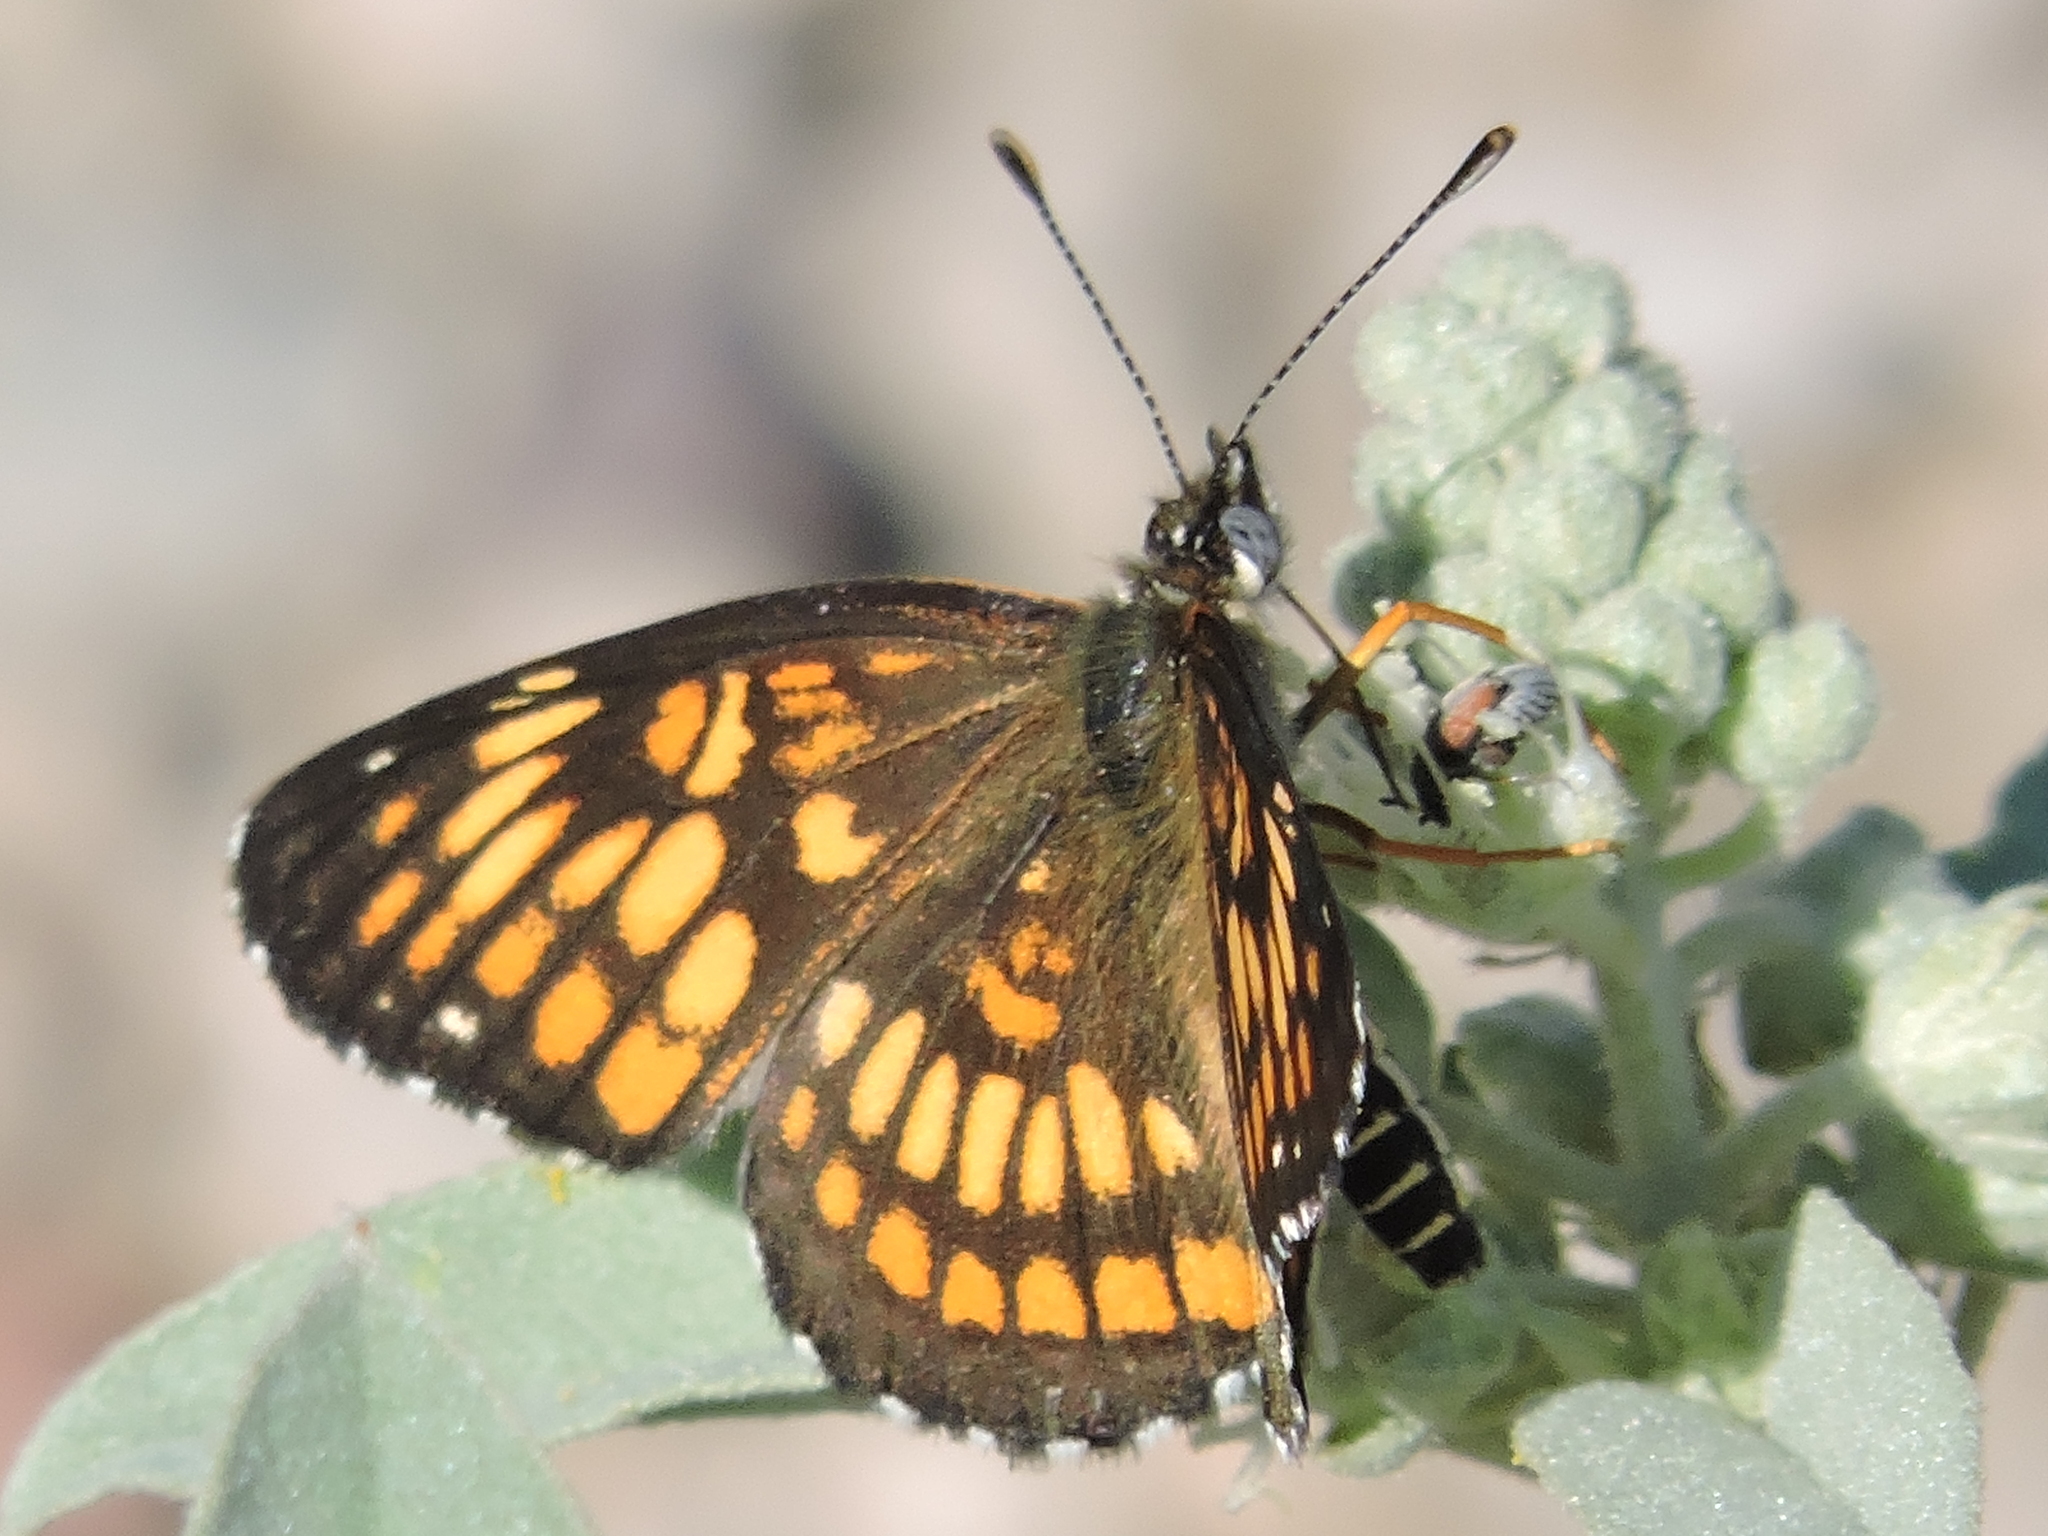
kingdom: Animalia
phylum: Arthropoda
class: Insecta
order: Lepidoptera
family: Nymphalidae
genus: Thessalia
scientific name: Thessalia theona
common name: Nymphalid moth
